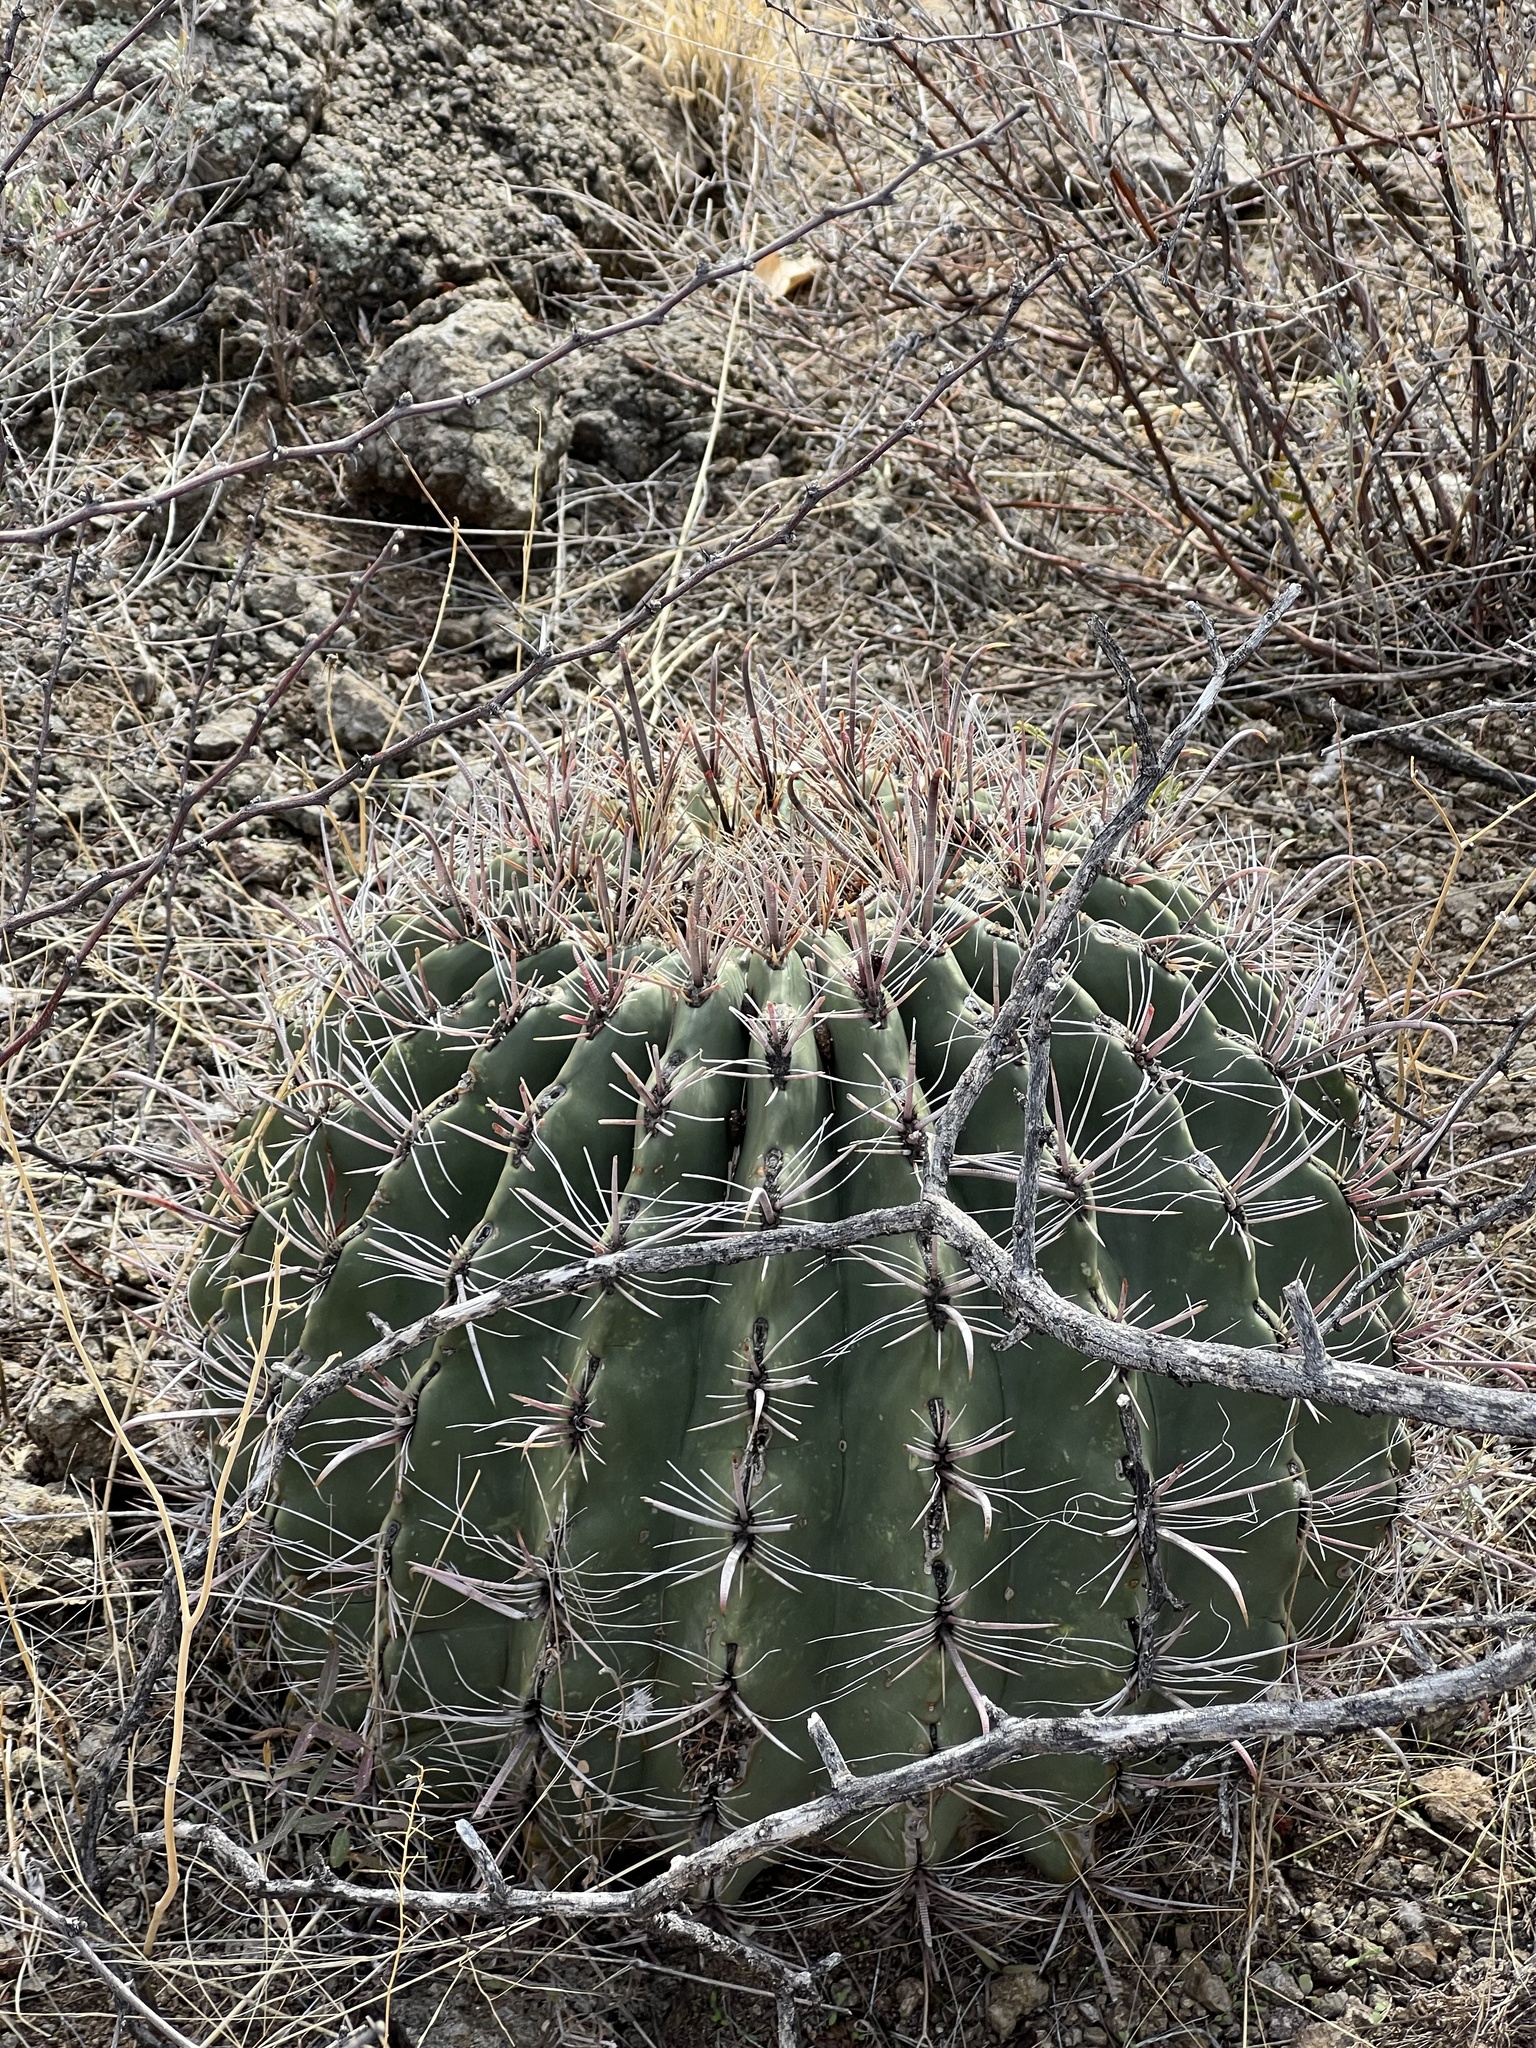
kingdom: Plantae
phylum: Tracheophyta
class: Magnoliopsida
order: Caryophyllales
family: Cactaceae
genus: Ferocactus
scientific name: Ferocactus wislizeni
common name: Candy barrel cactus
